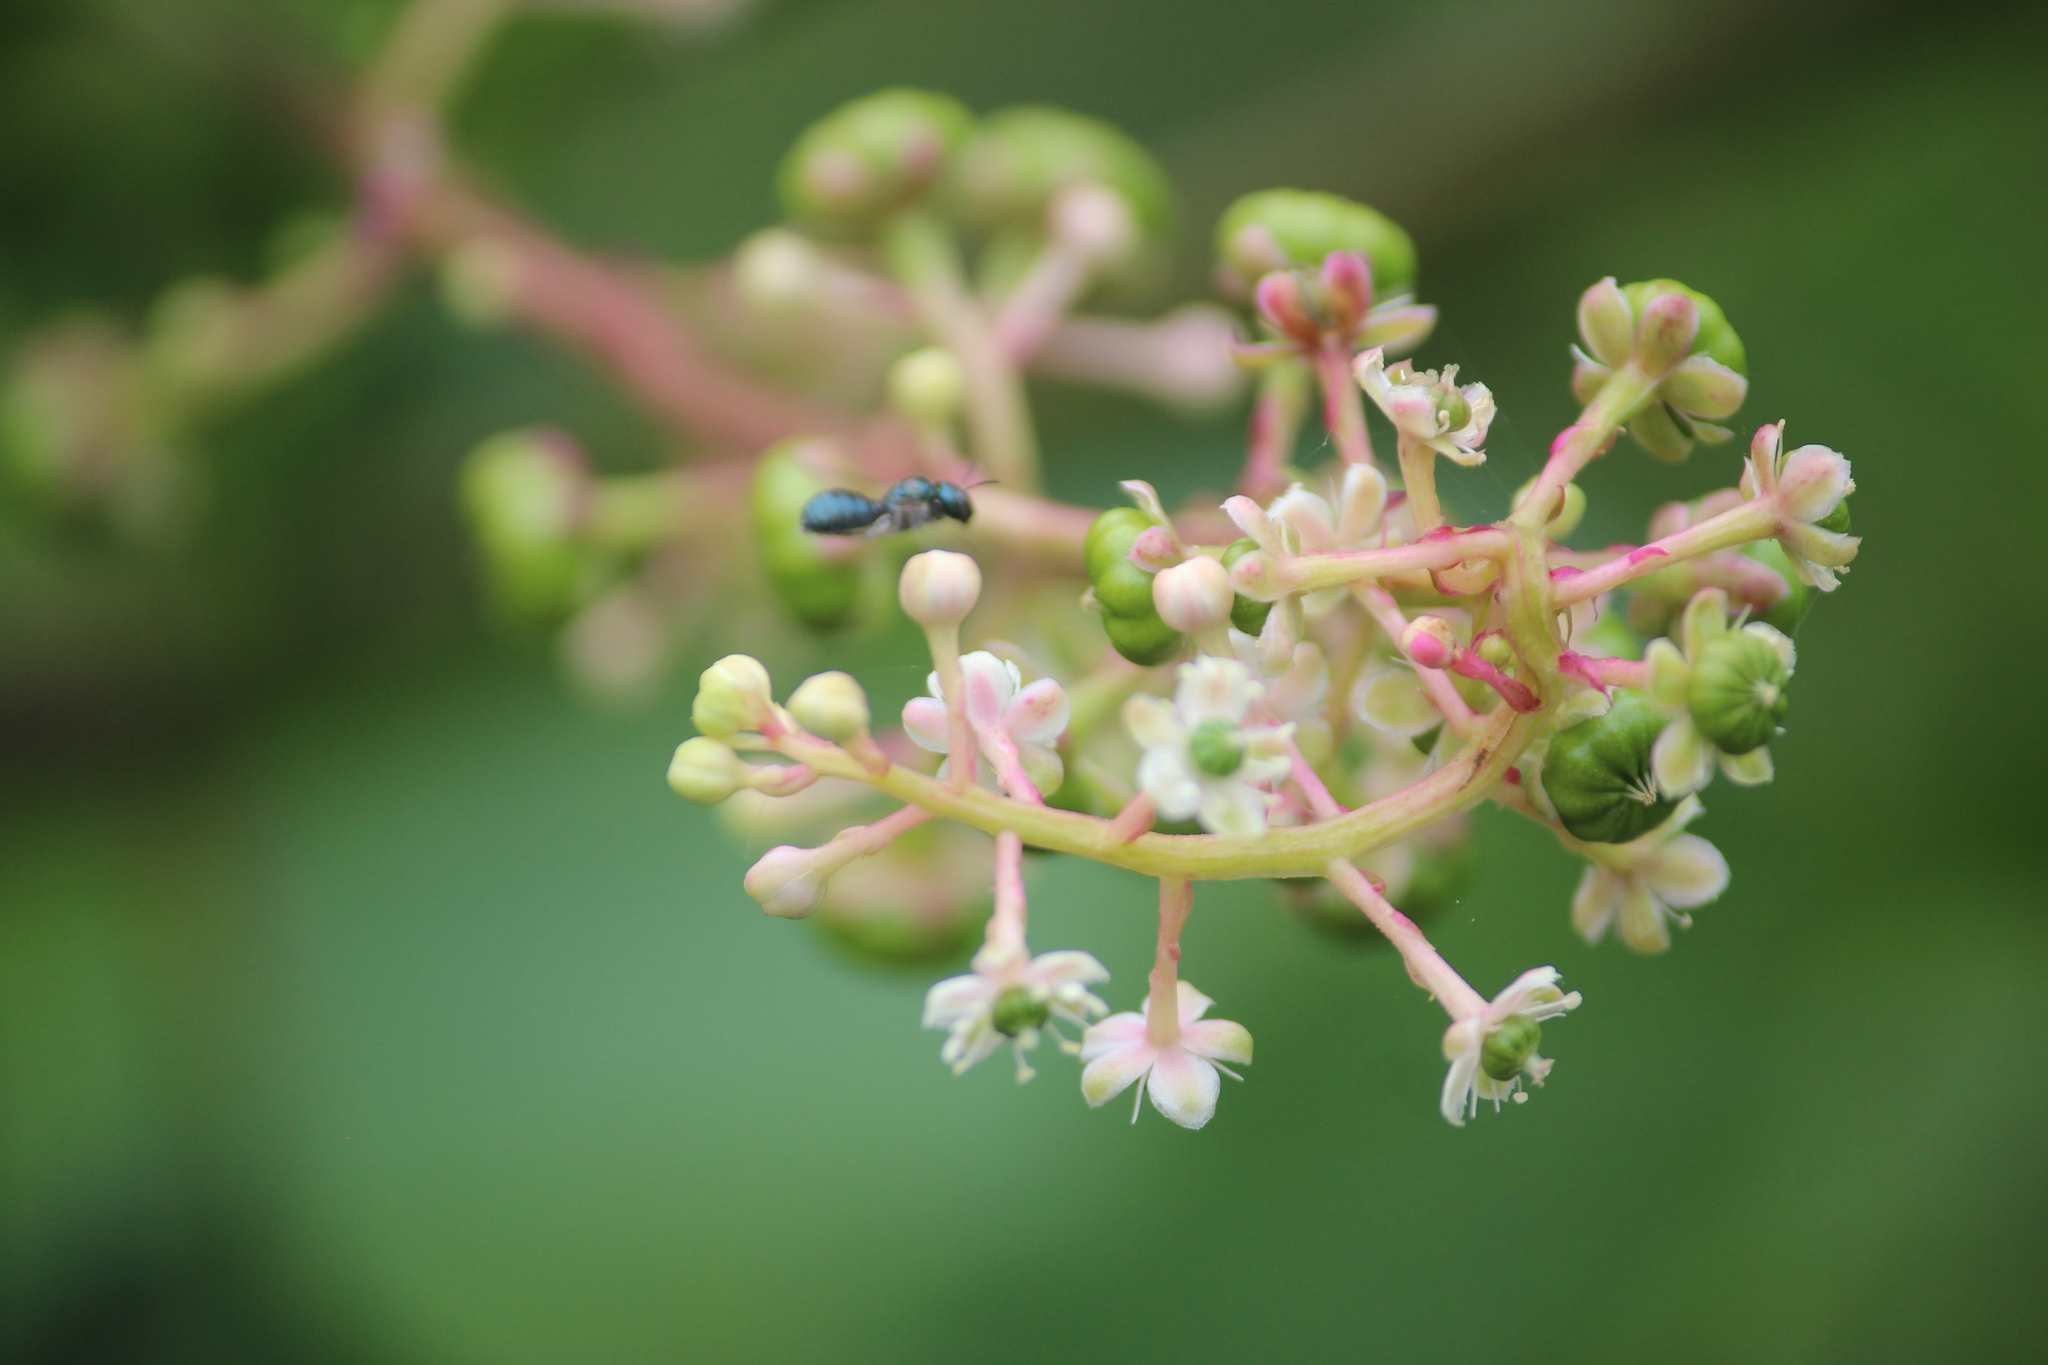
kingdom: Plantae
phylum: Tracheophyta
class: Magnoliopsida
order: Caryophyllales
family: Phytolaccaceae
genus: Phytolacca
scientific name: Phytolacca americana
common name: American pokeweed
